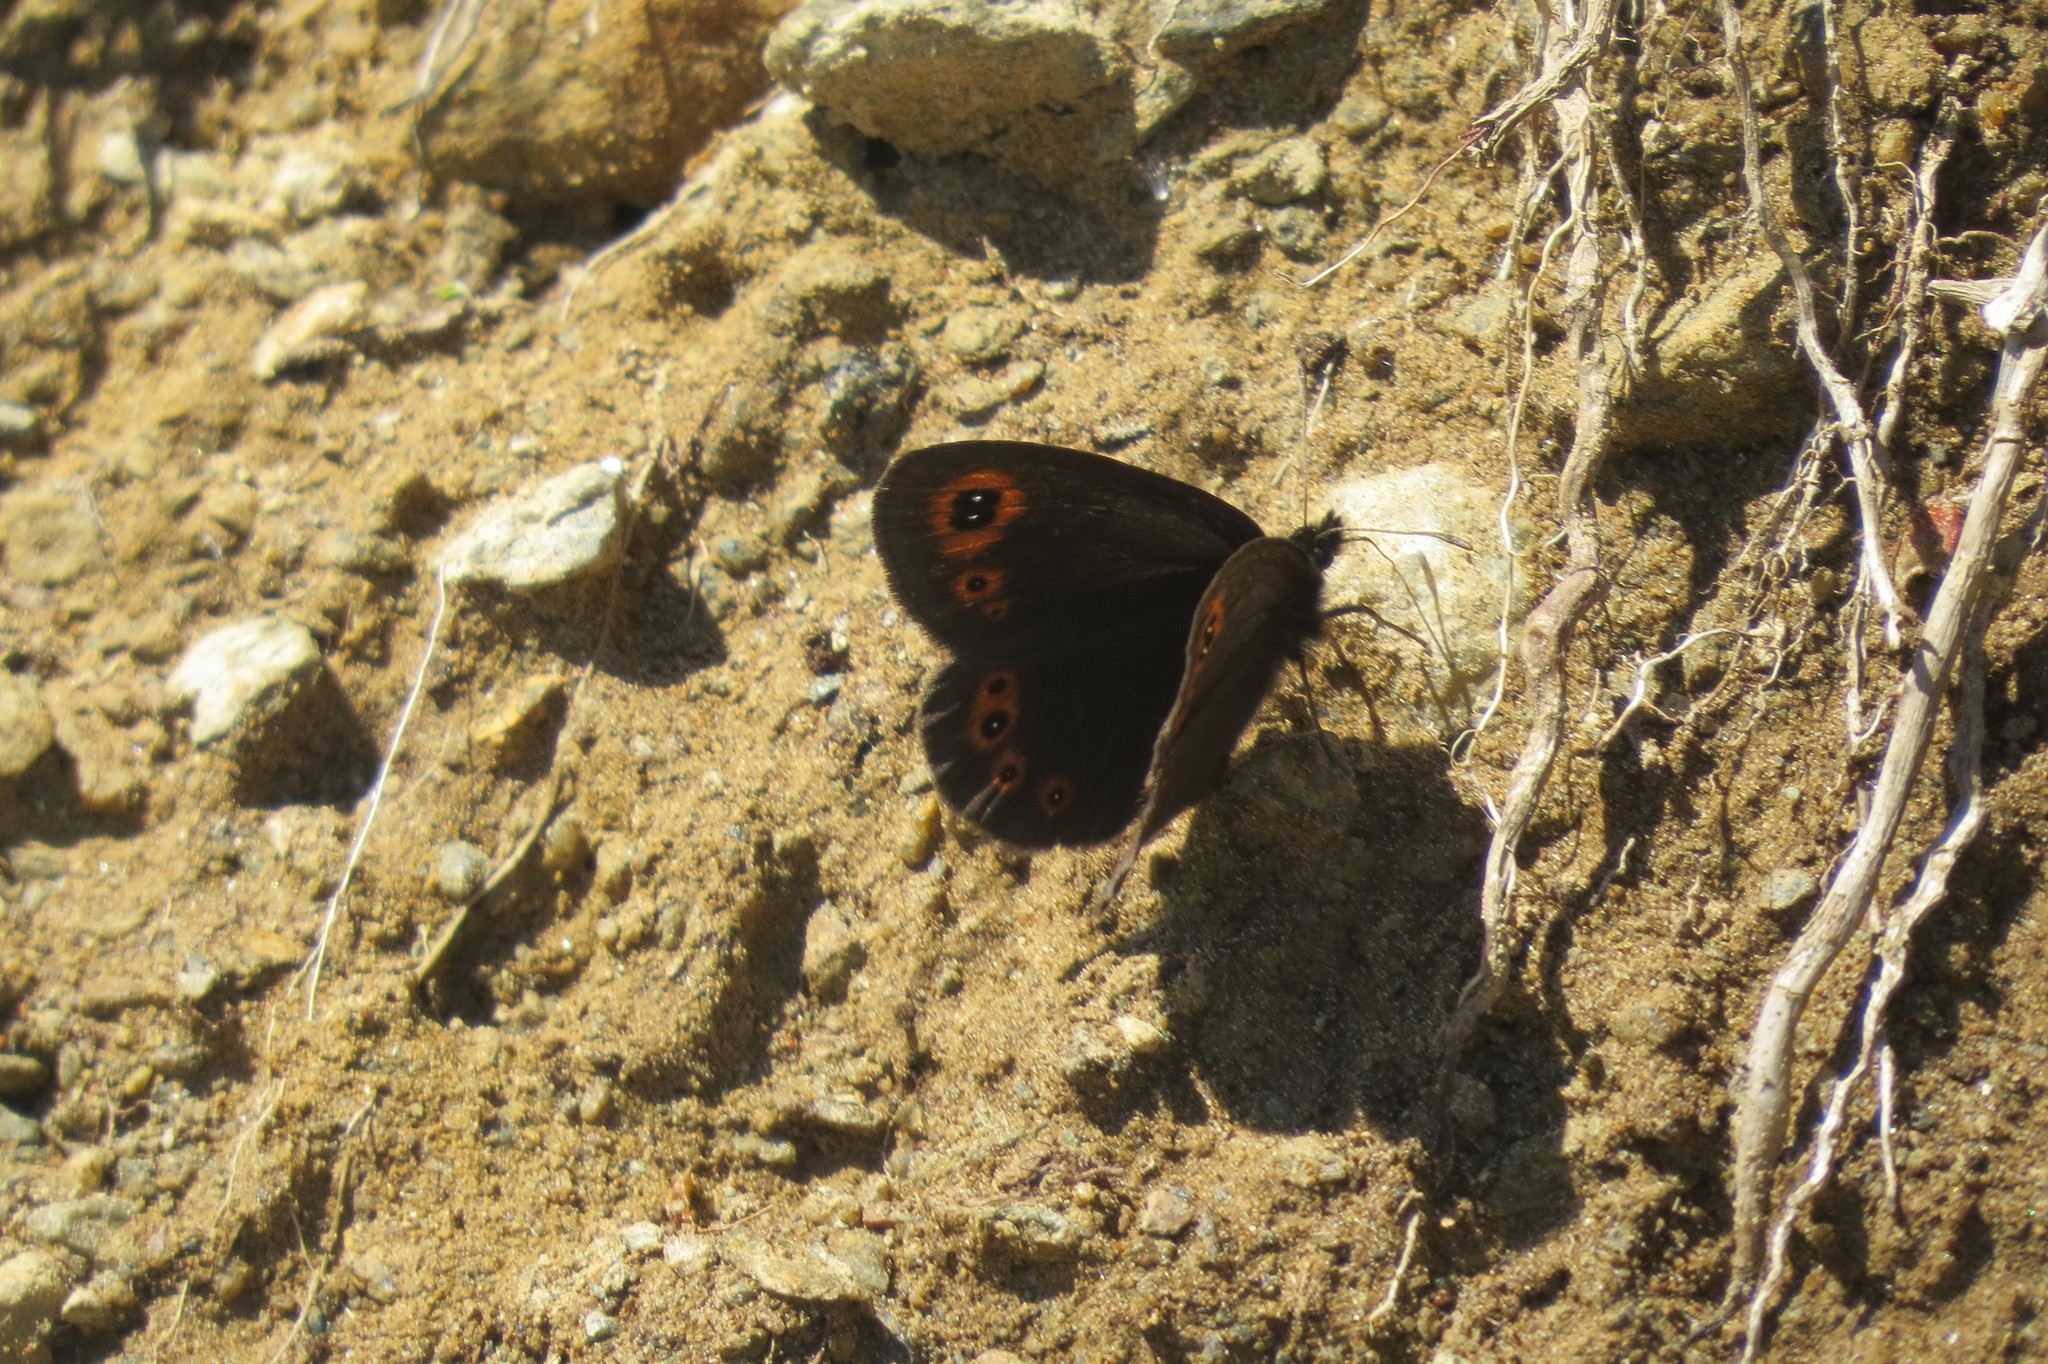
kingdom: Animalia
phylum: Arthropoda
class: Insecta
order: Lepidoptera
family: Nymphalidae
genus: Erebia
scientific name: Erebia medusa
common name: Woodland ringlet
